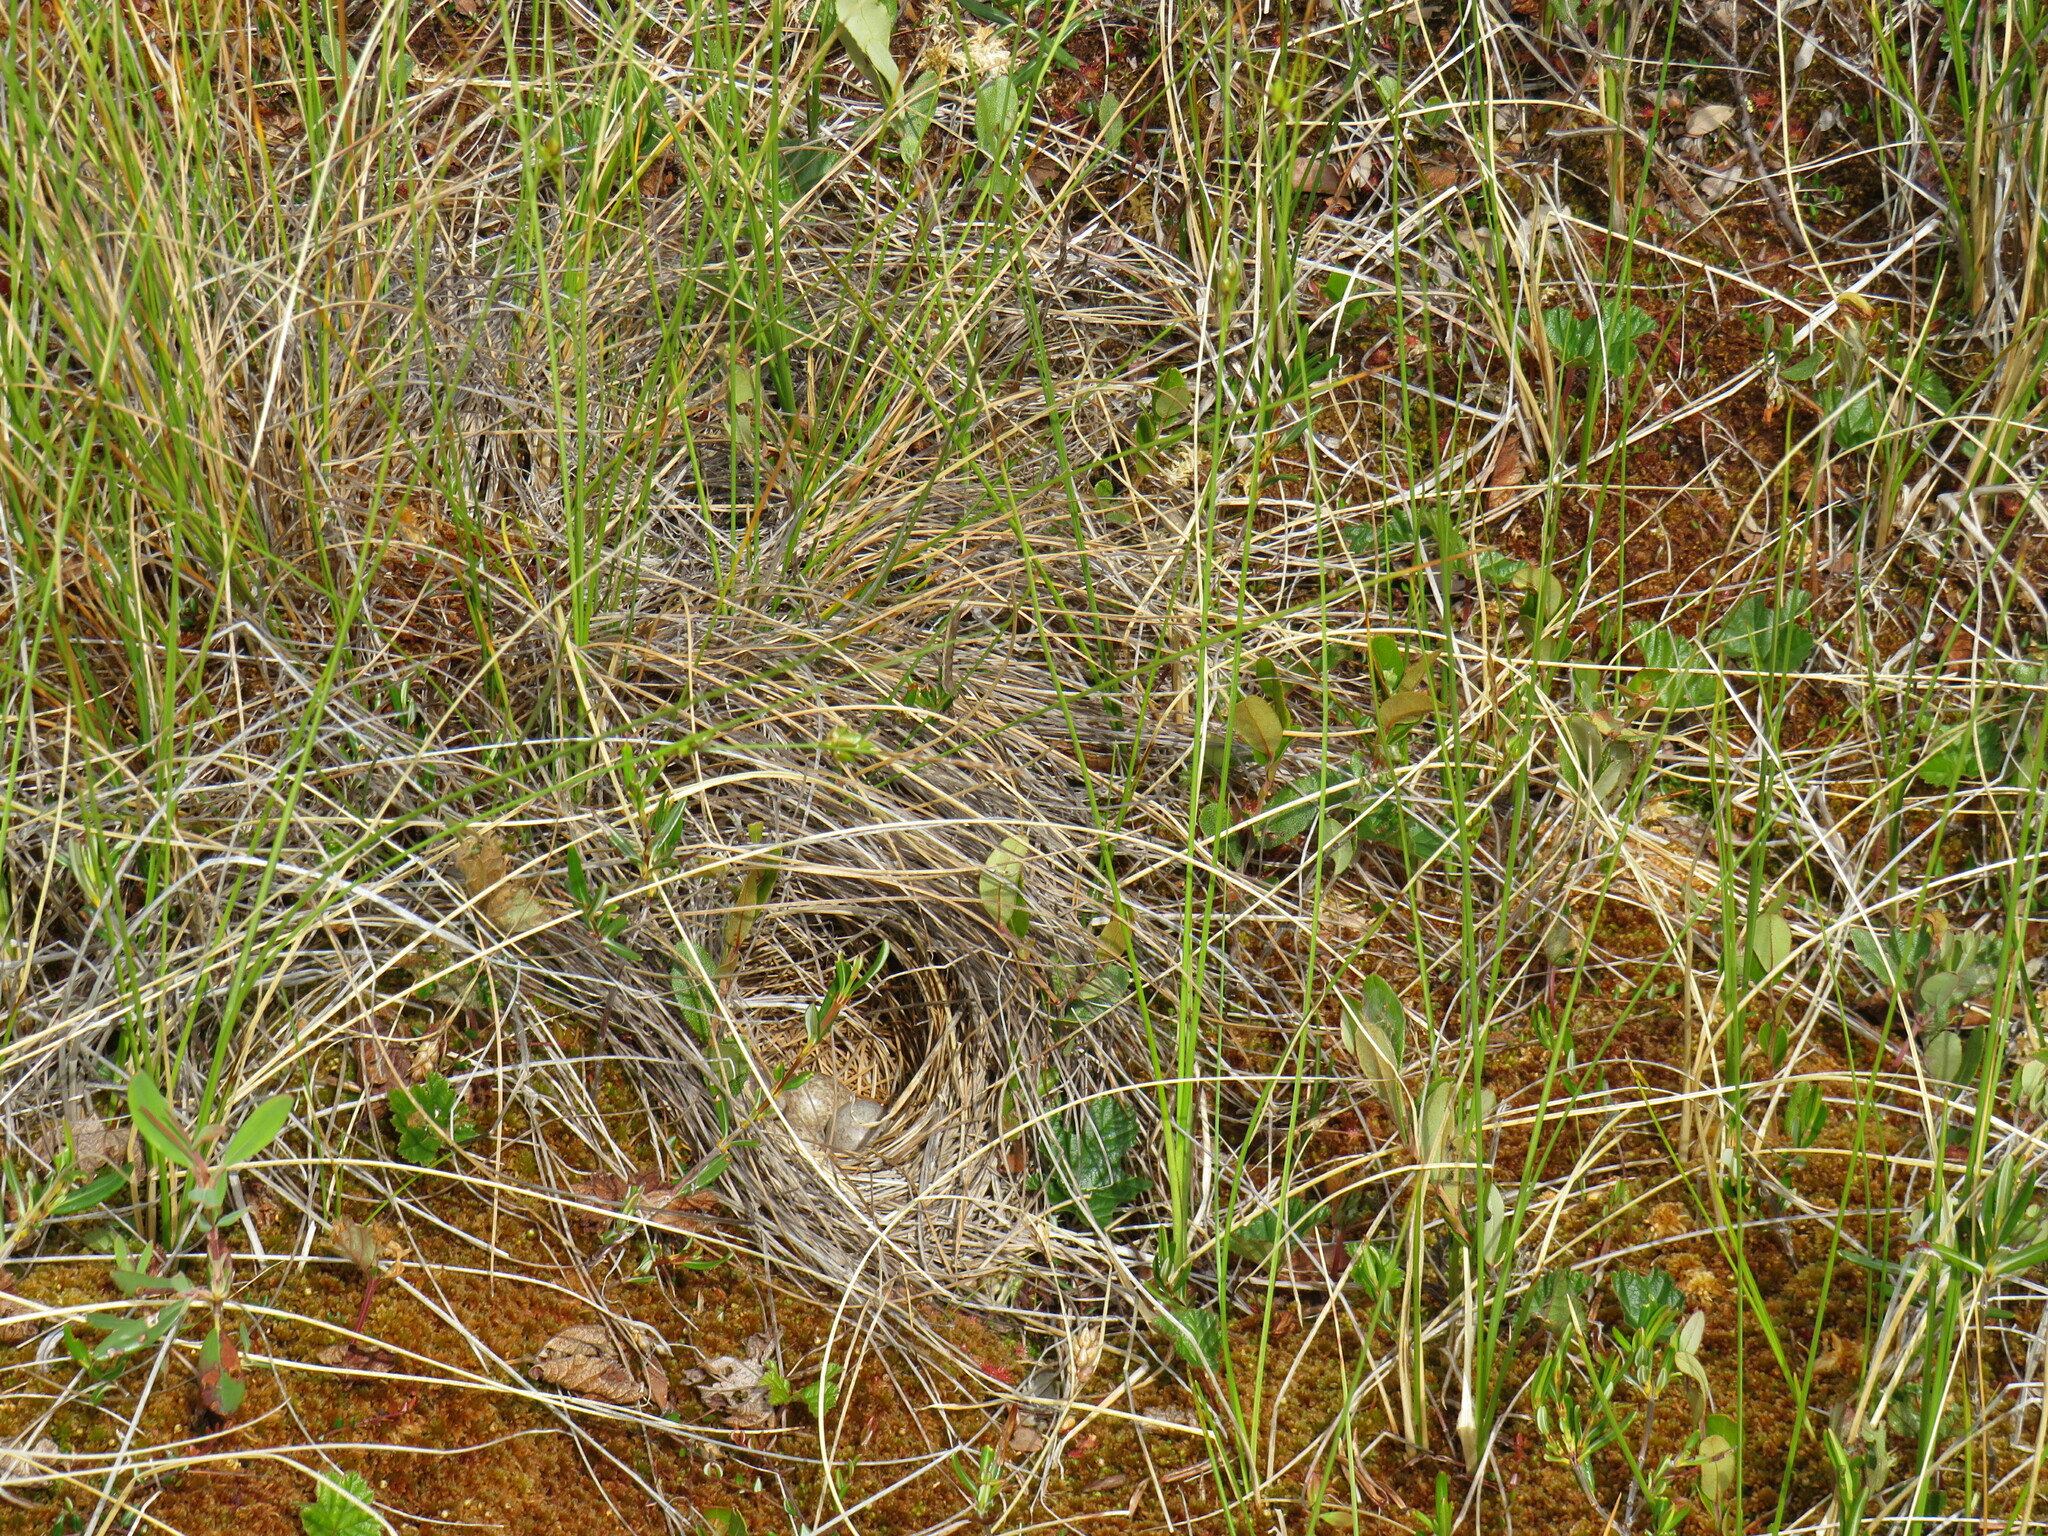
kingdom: Animalia
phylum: Chordata
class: Aves
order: Passeriformes
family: Passerellidae
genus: Passerculus
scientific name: Passerculus sandwichensis
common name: Savannah sparrow
